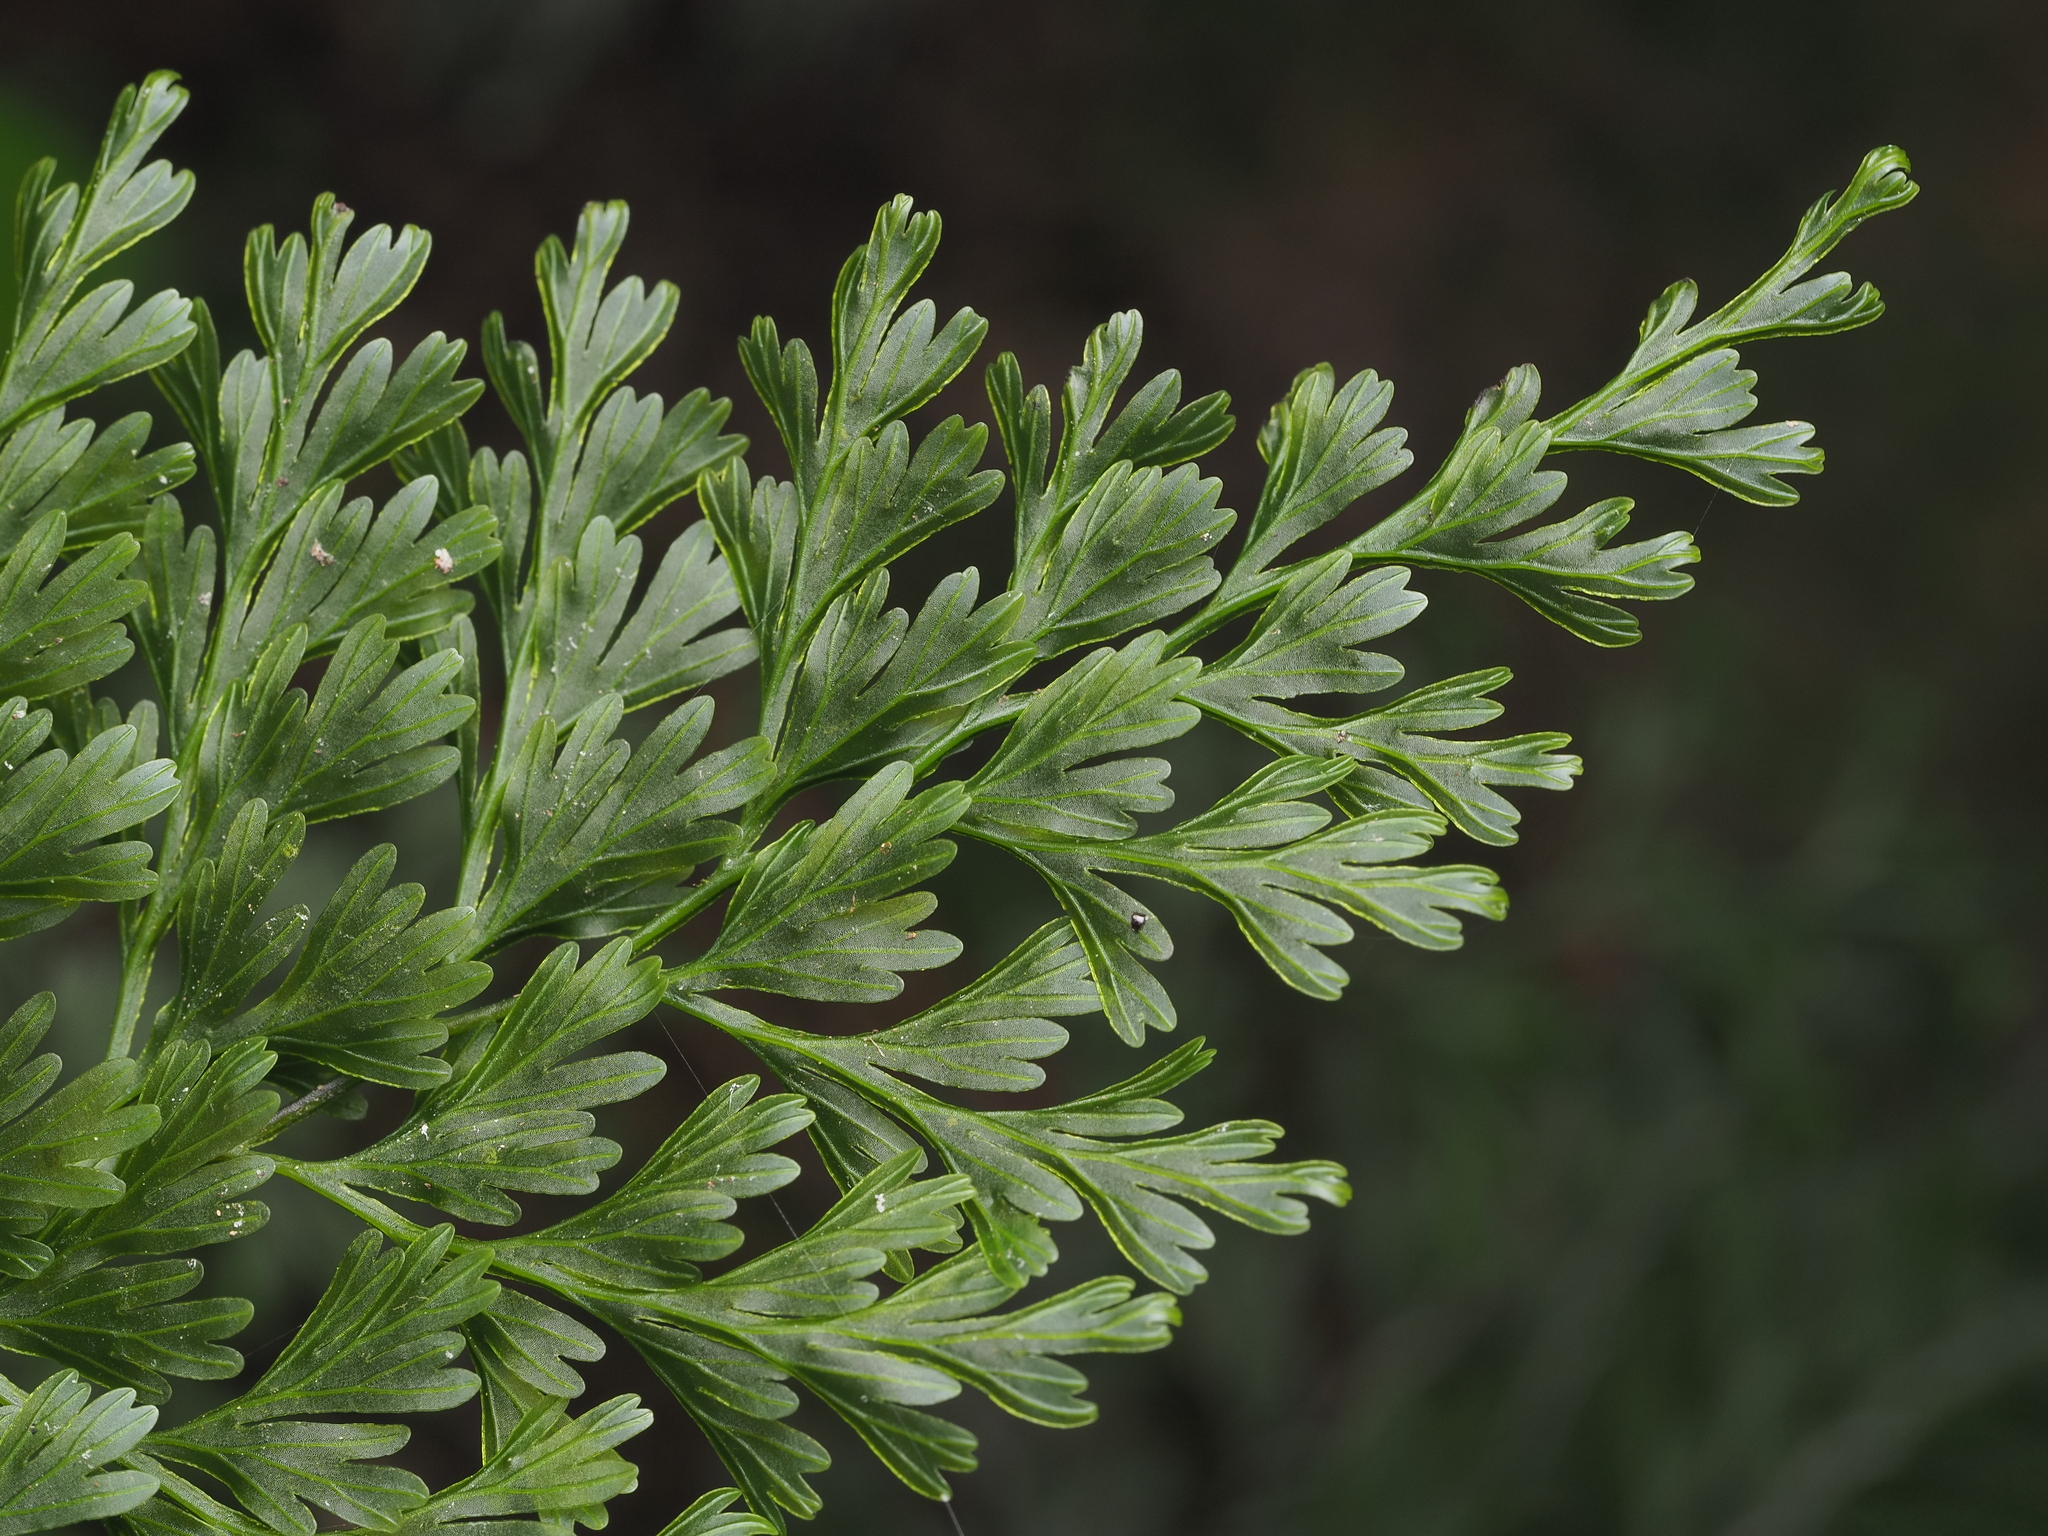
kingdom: Plantae
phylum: Tracheophyta
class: Polypodiopsida
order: Hymenophyllales
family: Hymenophyllaceae
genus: Hymenophyllum
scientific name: Hymenophyllum demissum
